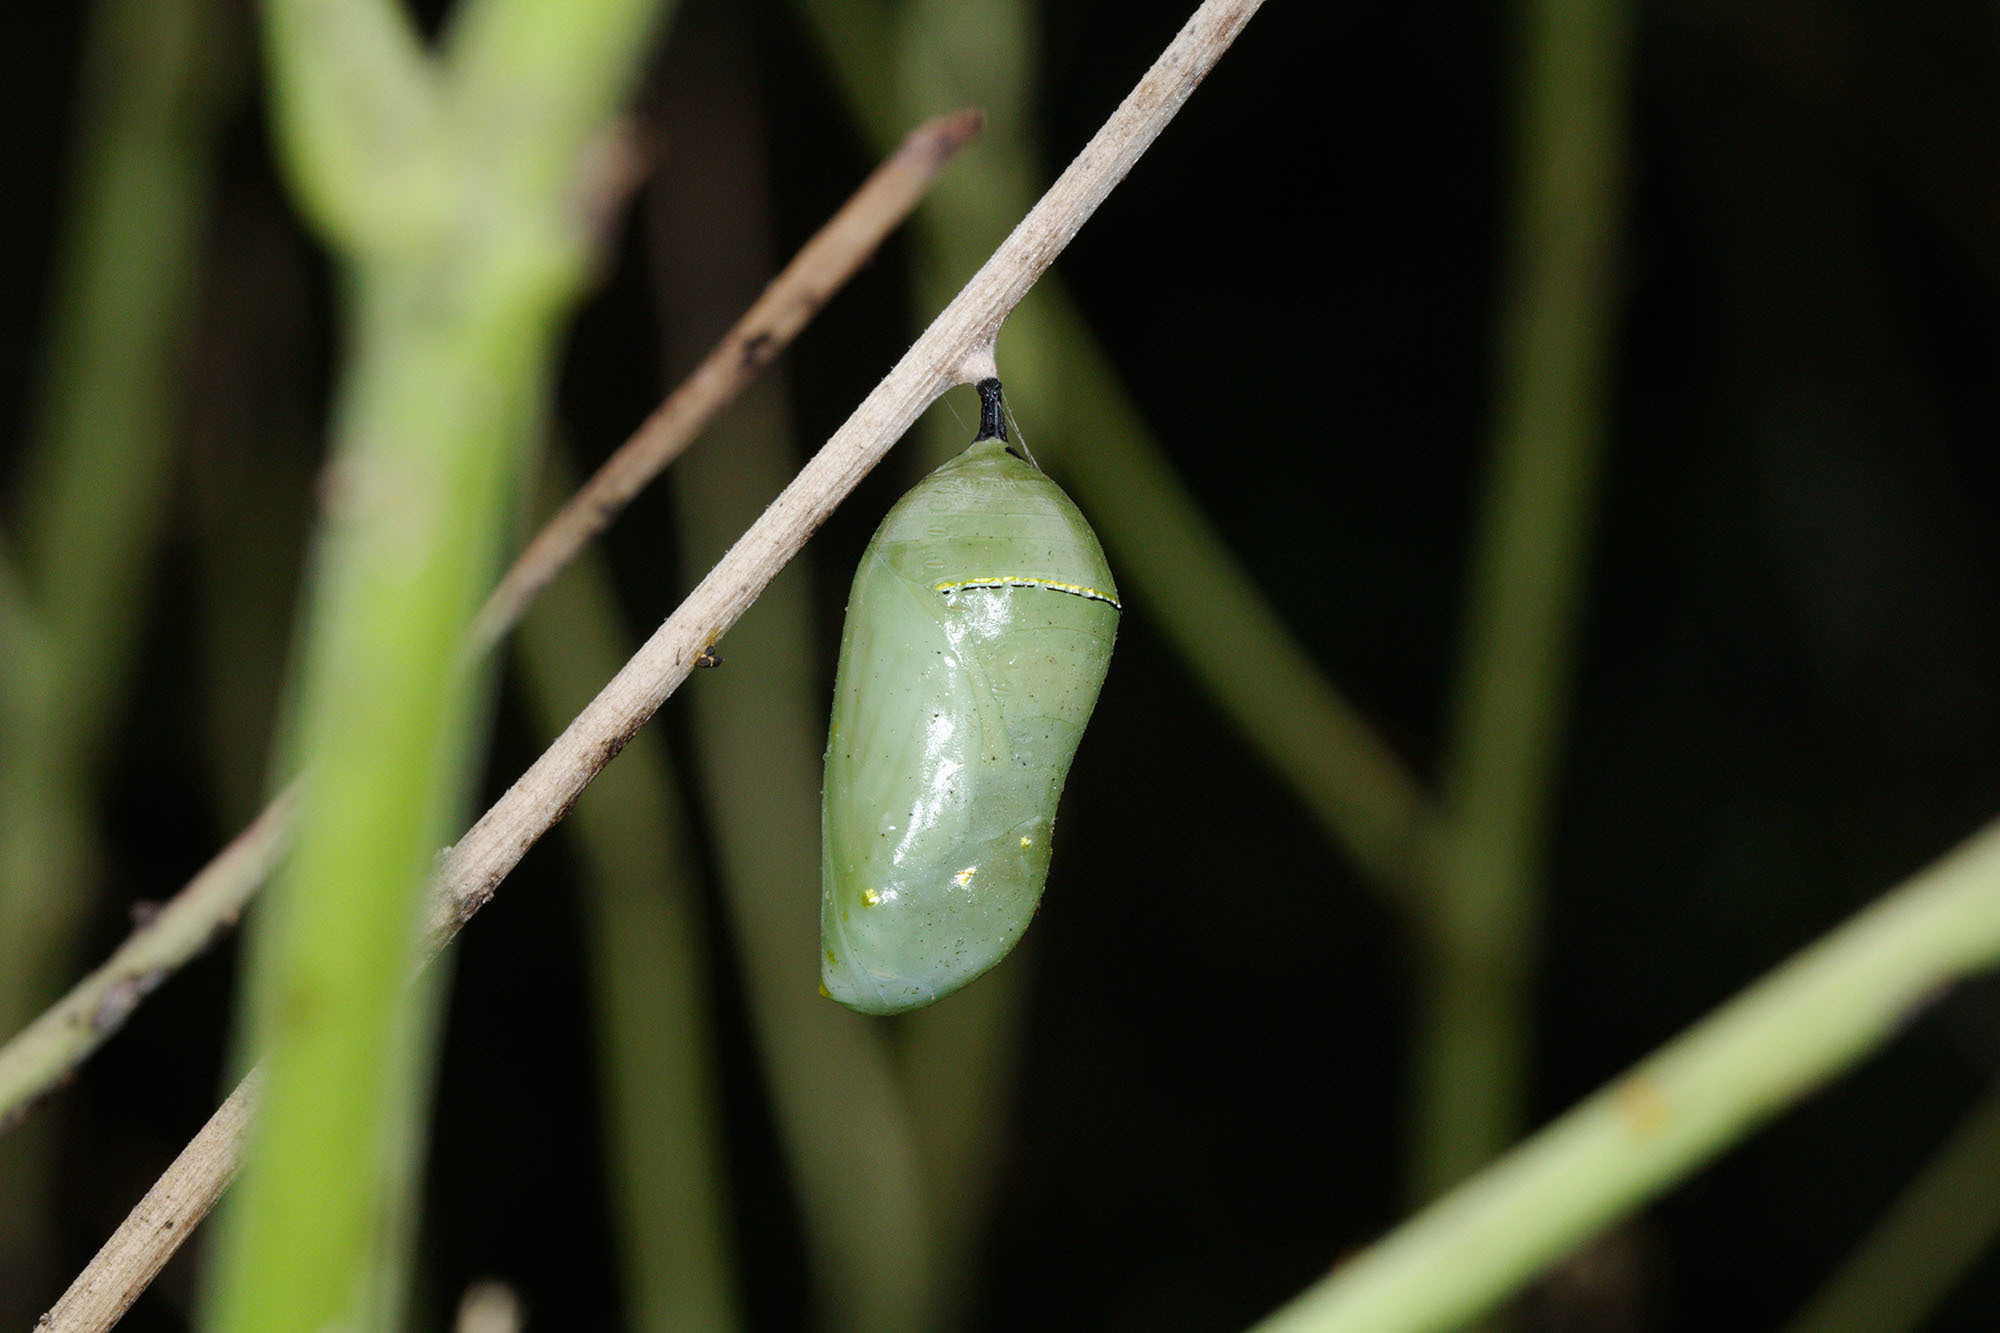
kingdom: Animalia
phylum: Arthropoda
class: Insecta
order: Lepidoptera
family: Nymphalidae
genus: Danaus
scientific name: Danaus plexippus
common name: Monarch
